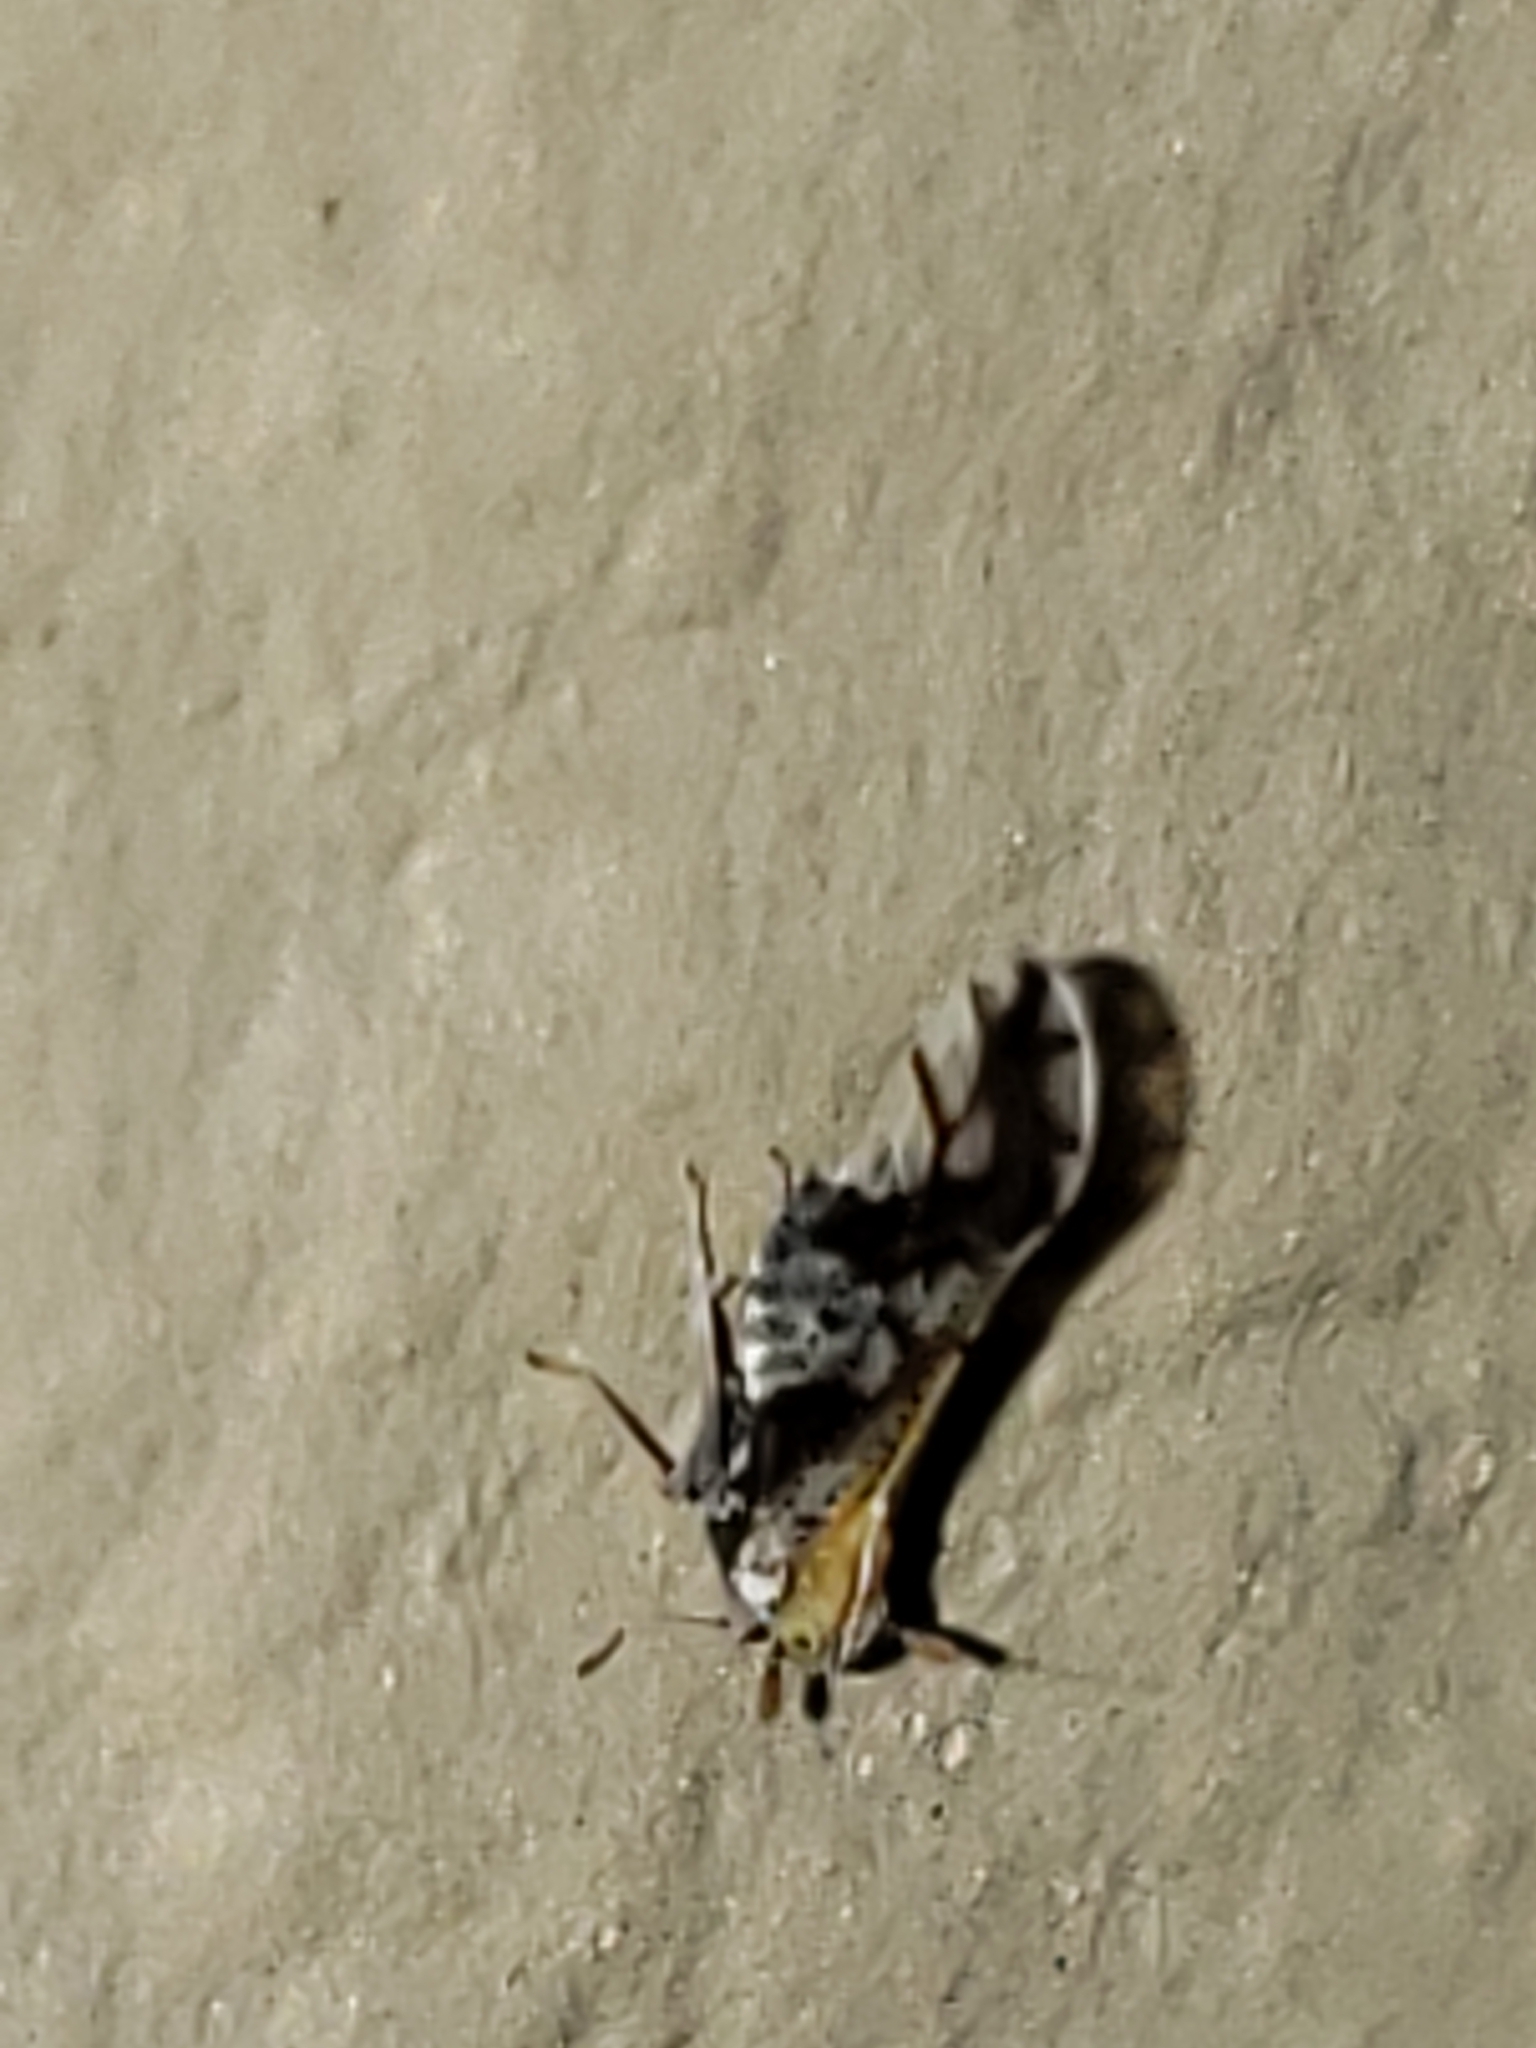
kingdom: Animalia
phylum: Arthropoda
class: Insecta
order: Hemiptera
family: Delphacidae
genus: Liburniella
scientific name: Liburniella ornata
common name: Ornate planthopper
